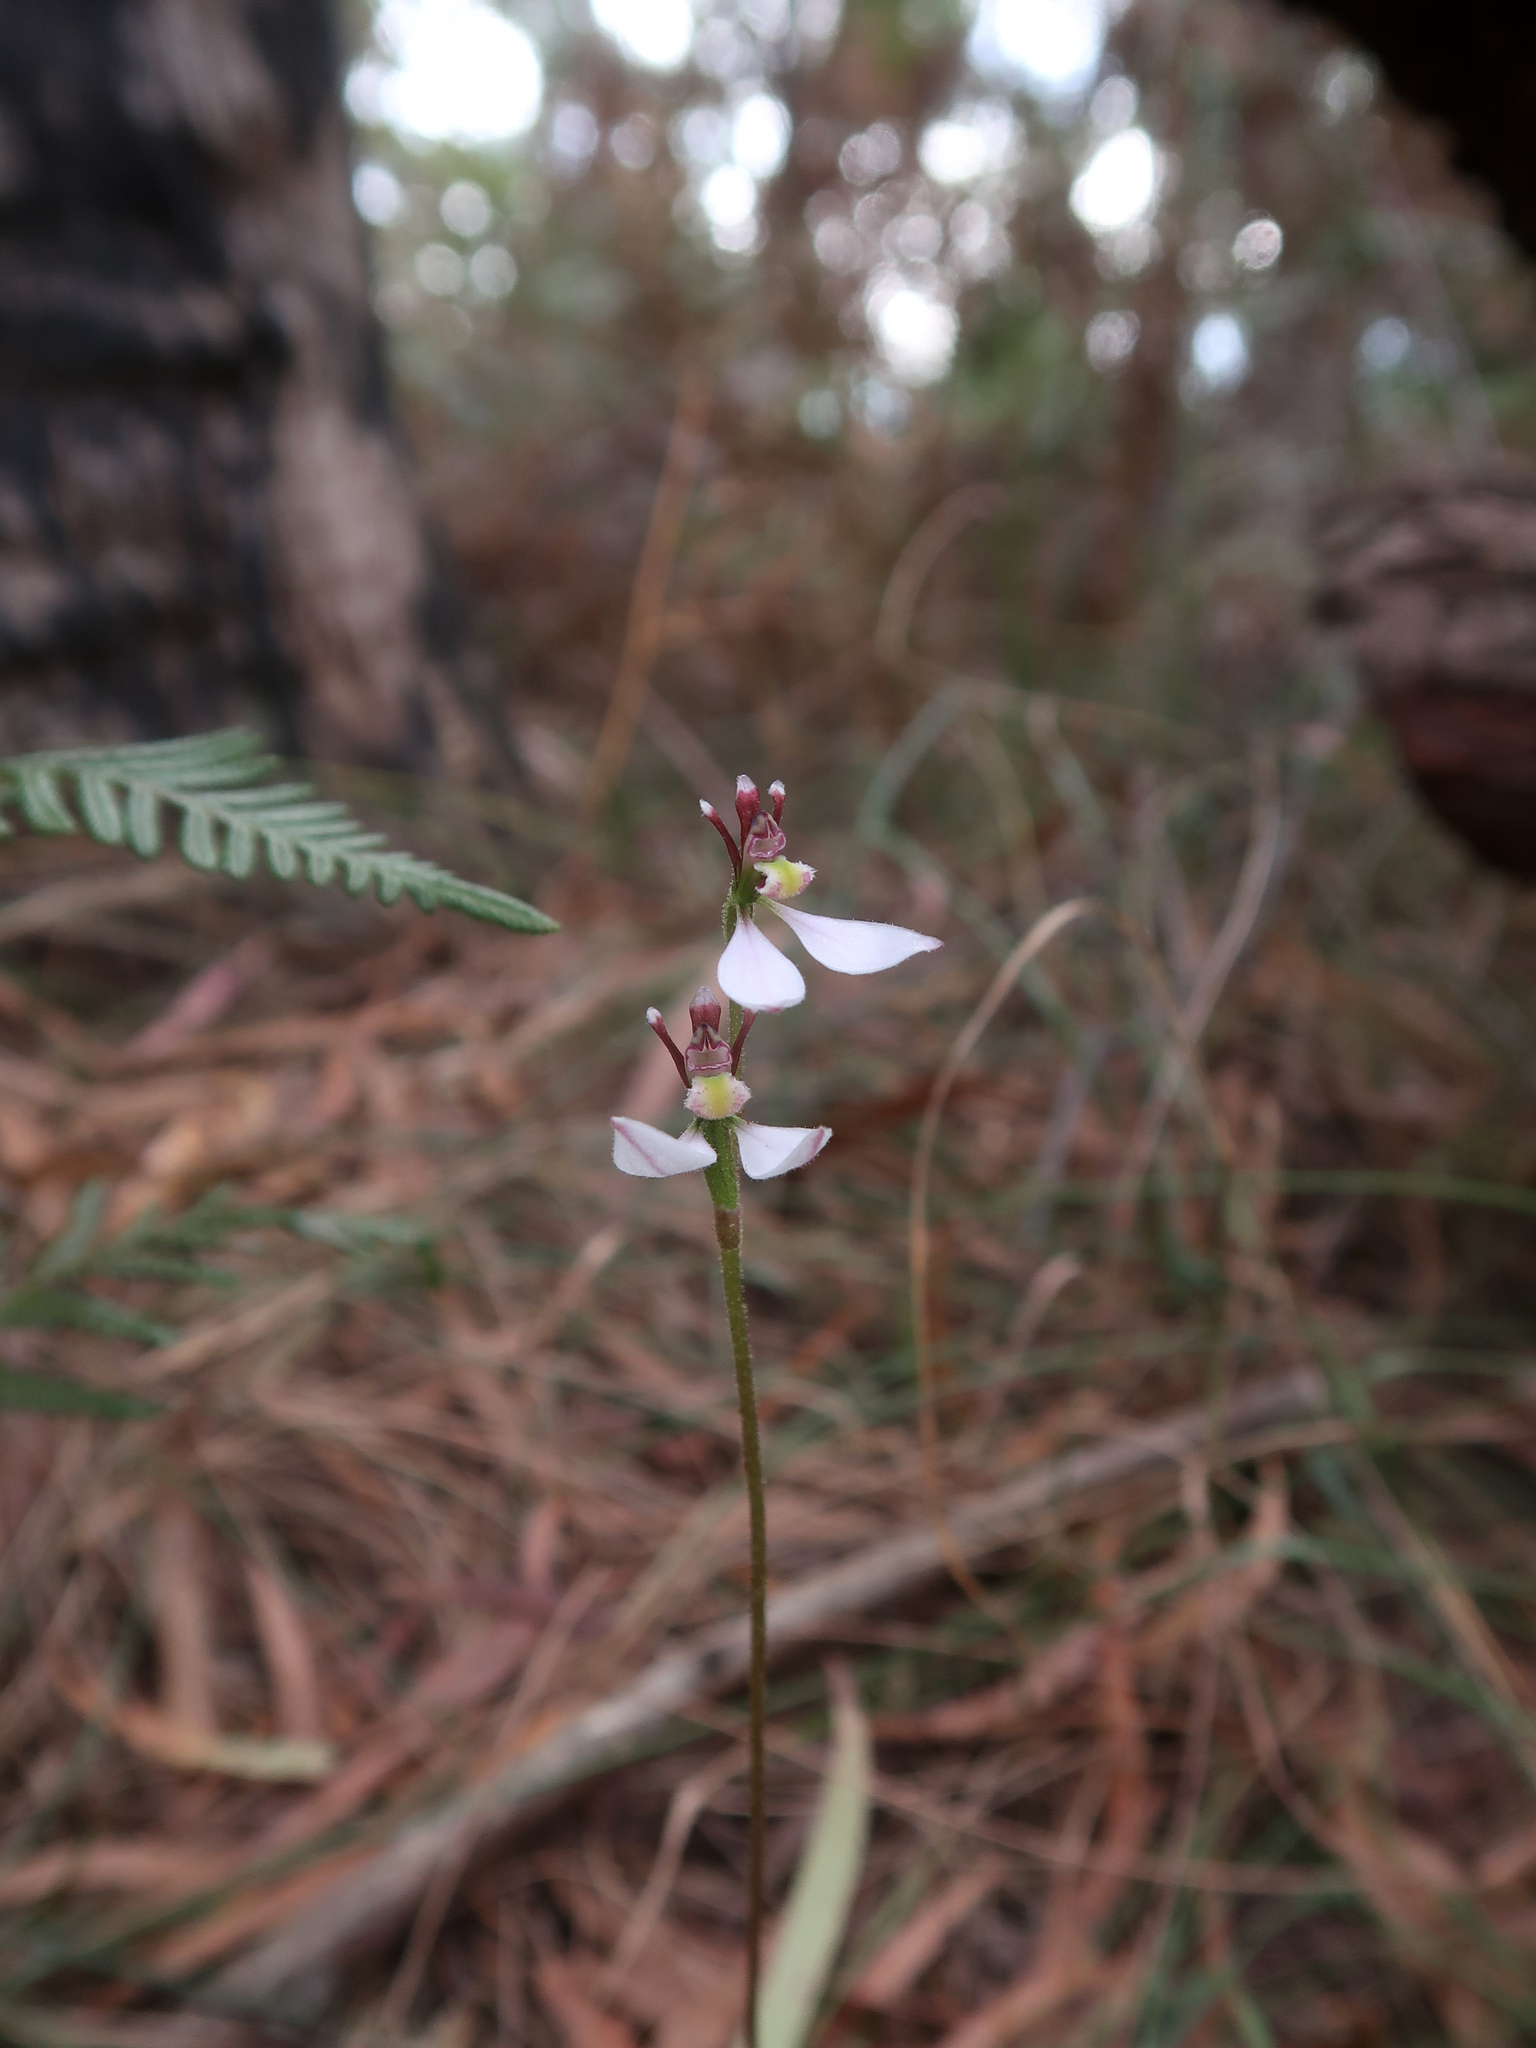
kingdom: Plantae
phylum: Tracheophyta
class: Liliopsida
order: Asparagales
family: Orchidaceae
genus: Eriochilus
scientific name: Eriochilus cucullatus
